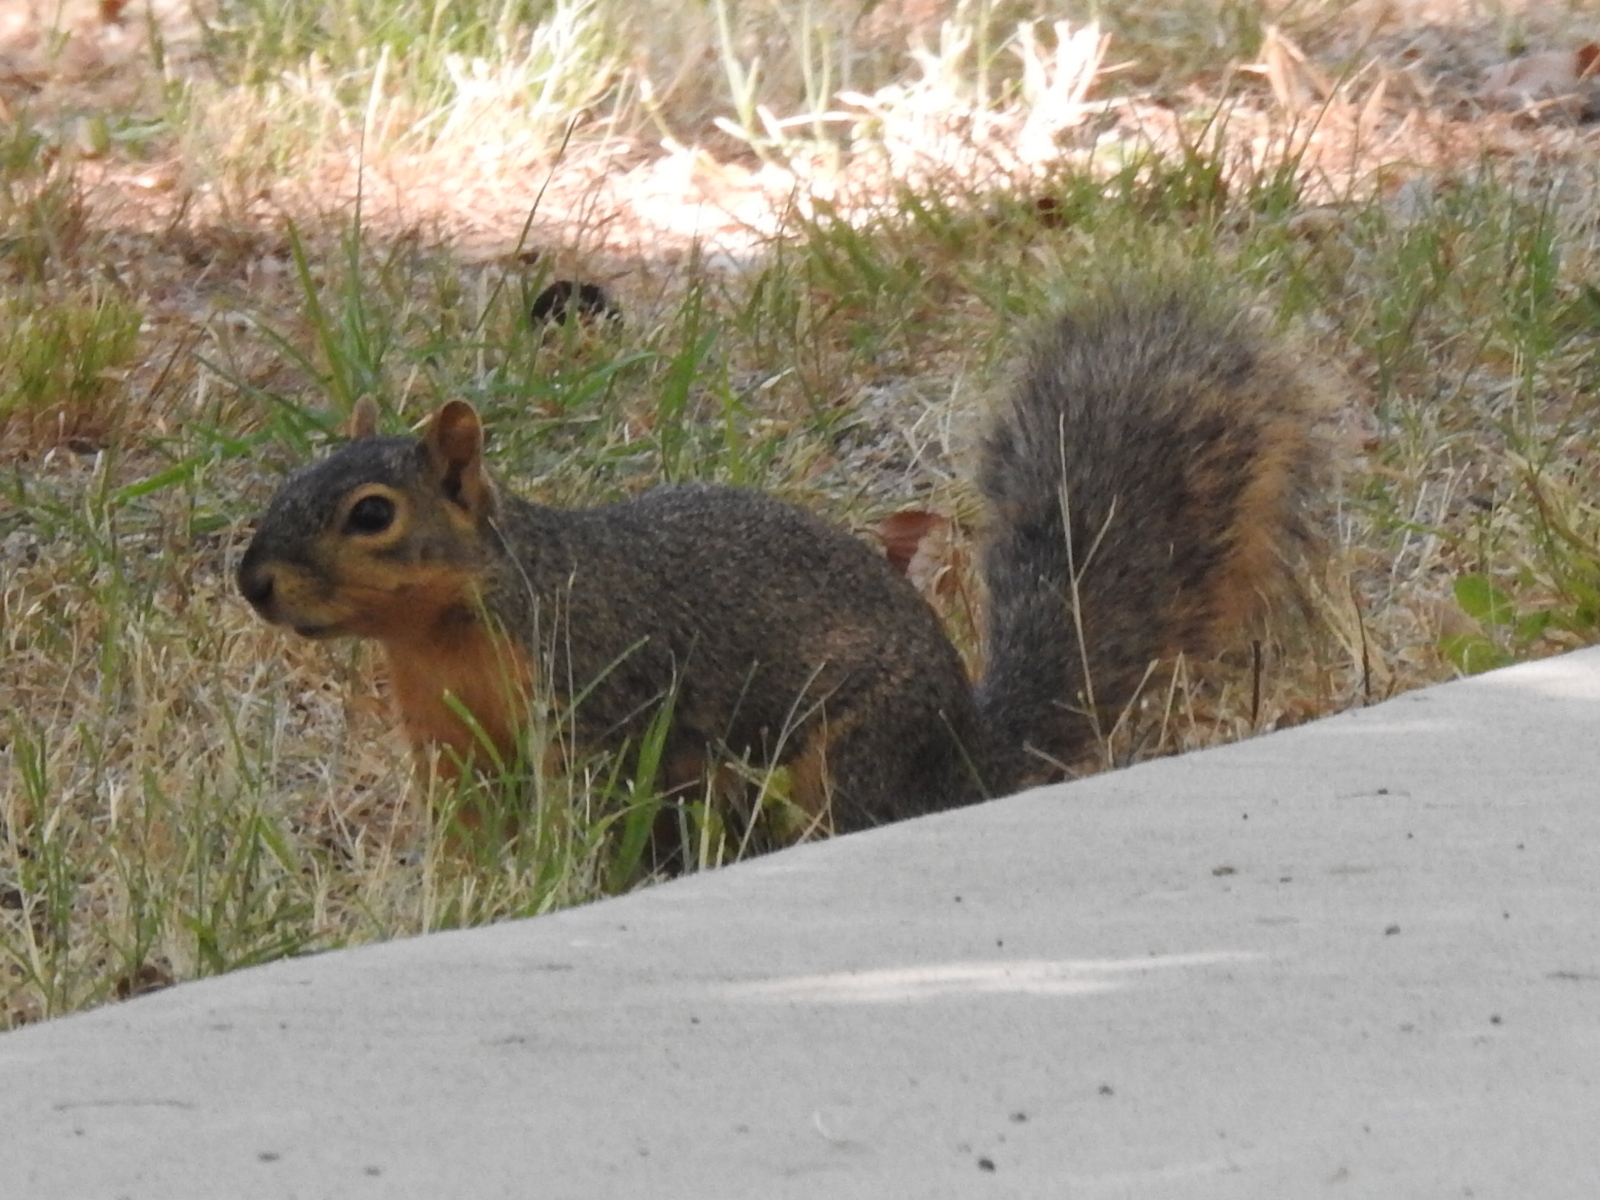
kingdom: Animalia
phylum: Chordata
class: Mammalia
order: Rodentia
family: Sciuridae
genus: Sciurus
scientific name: Sciurus niger
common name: Fox squirrel
